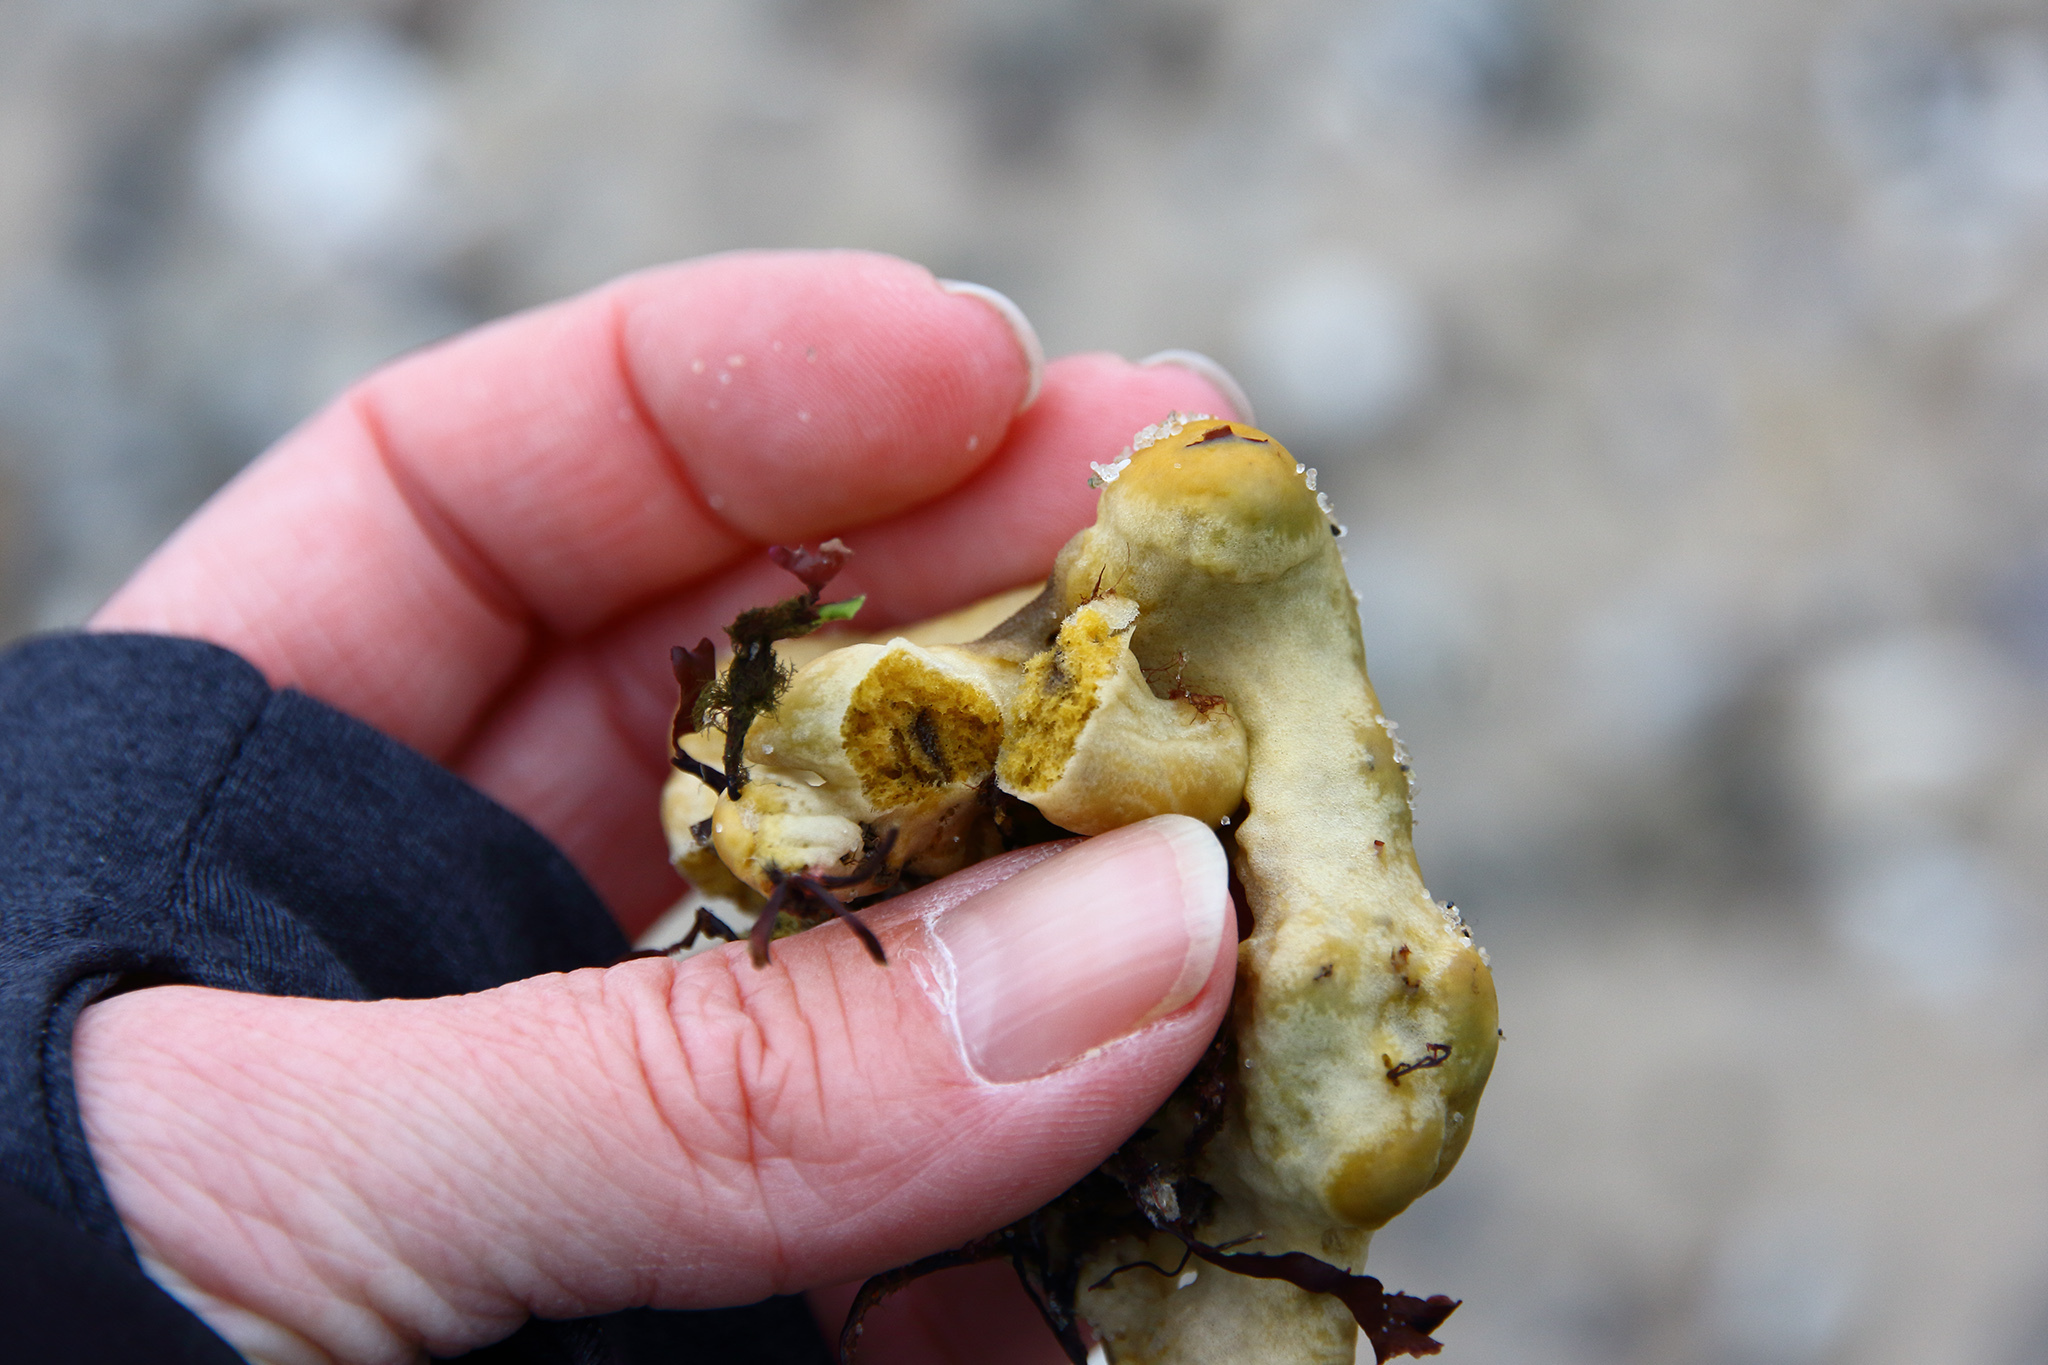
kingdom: Animalia
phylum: Porifera
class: Demospongiae
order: Suberitida
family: Halichondriidae
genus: Halichondria
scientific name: Halichondria panicea
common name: Breadcrumb sponge
